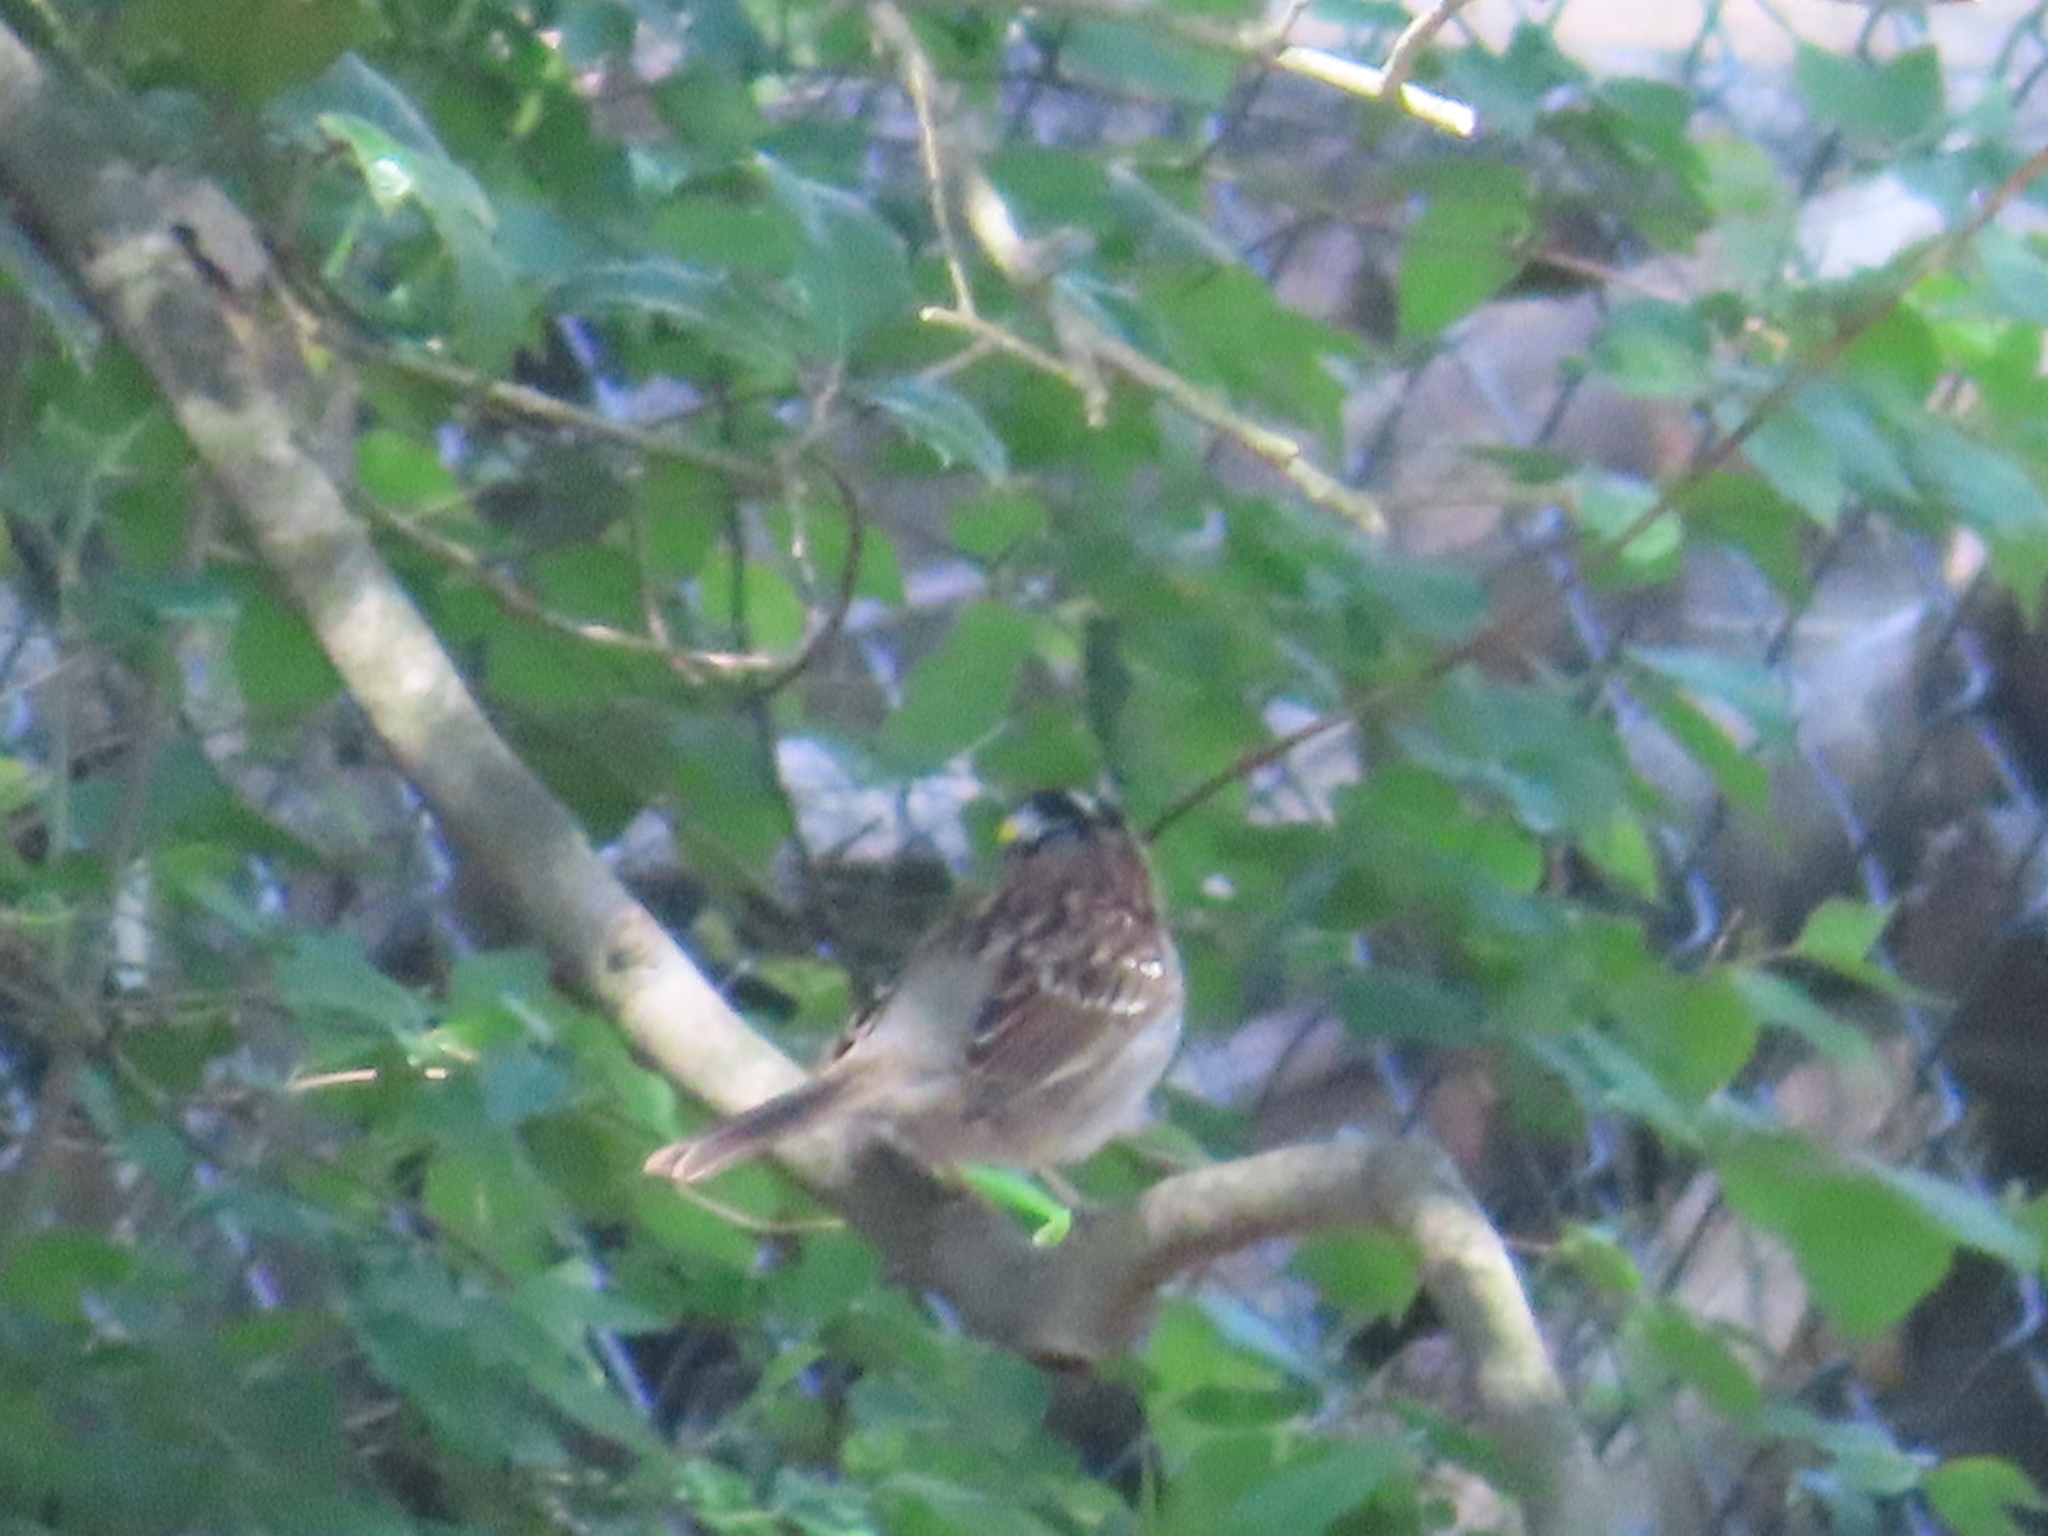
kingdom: Animalia
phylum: Chordata
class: Aves
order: Passeriformes
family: Passerellidae
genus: Zonotrichia
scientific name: Zonotrichia albicollis
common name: White-throated sparrow
